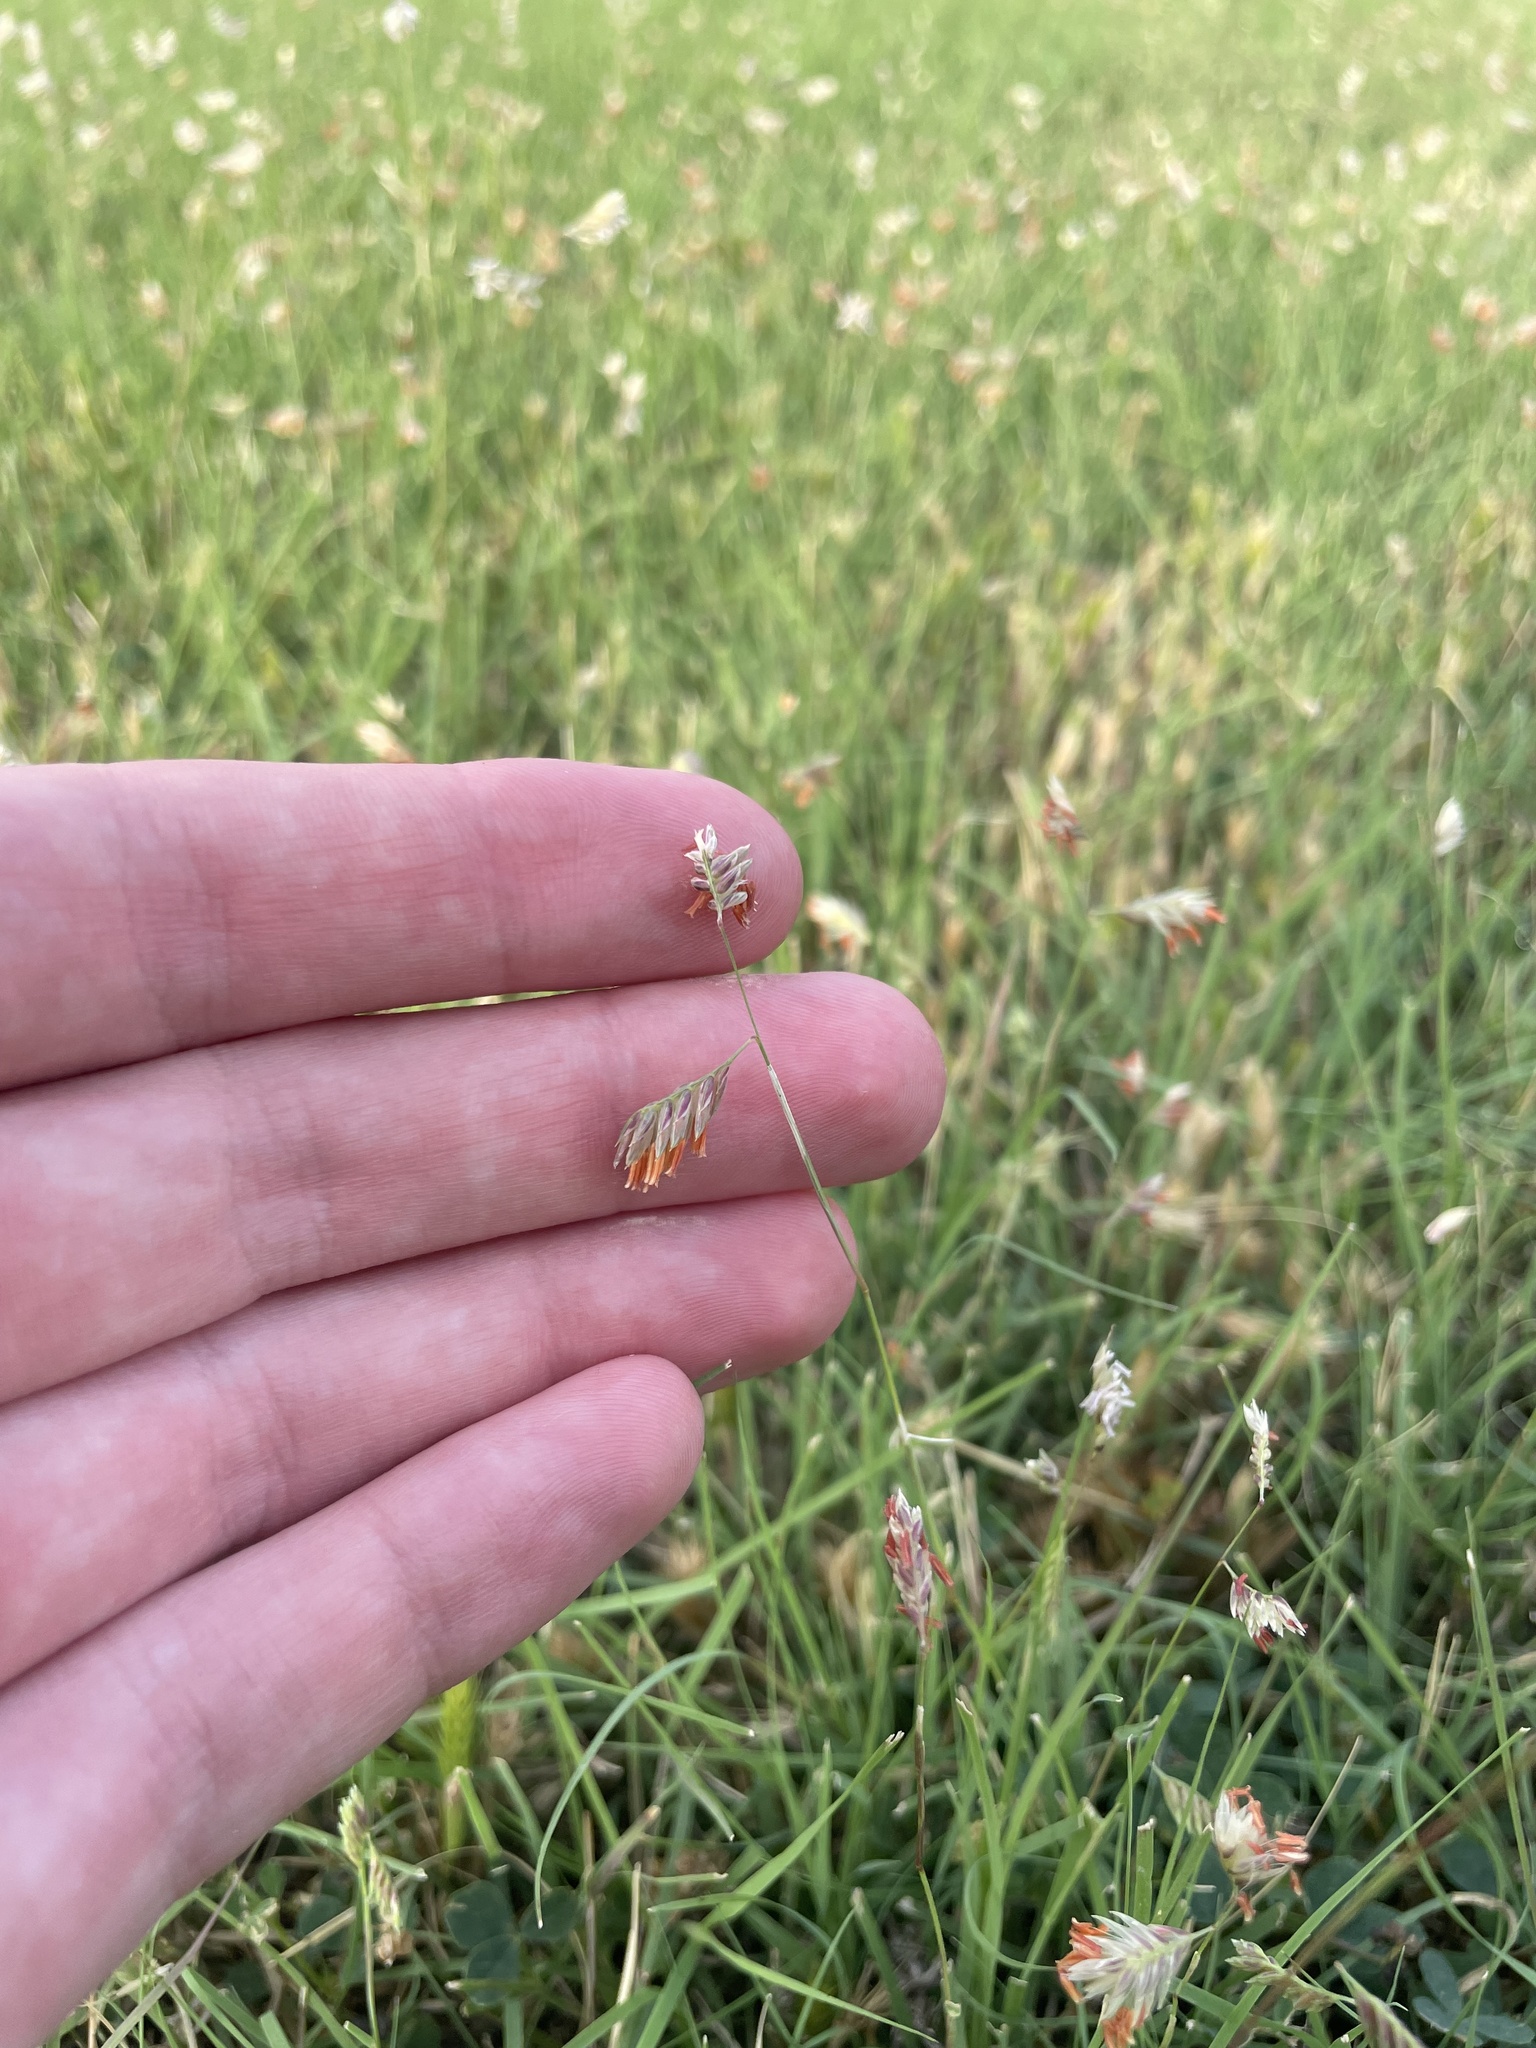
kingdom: Plantae
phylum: Tracheophyta
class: Liliopsida
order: Poales
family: Poaceae
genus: Bouteloua
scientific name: Bouteloua dactyloides
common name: Buffalo grass
